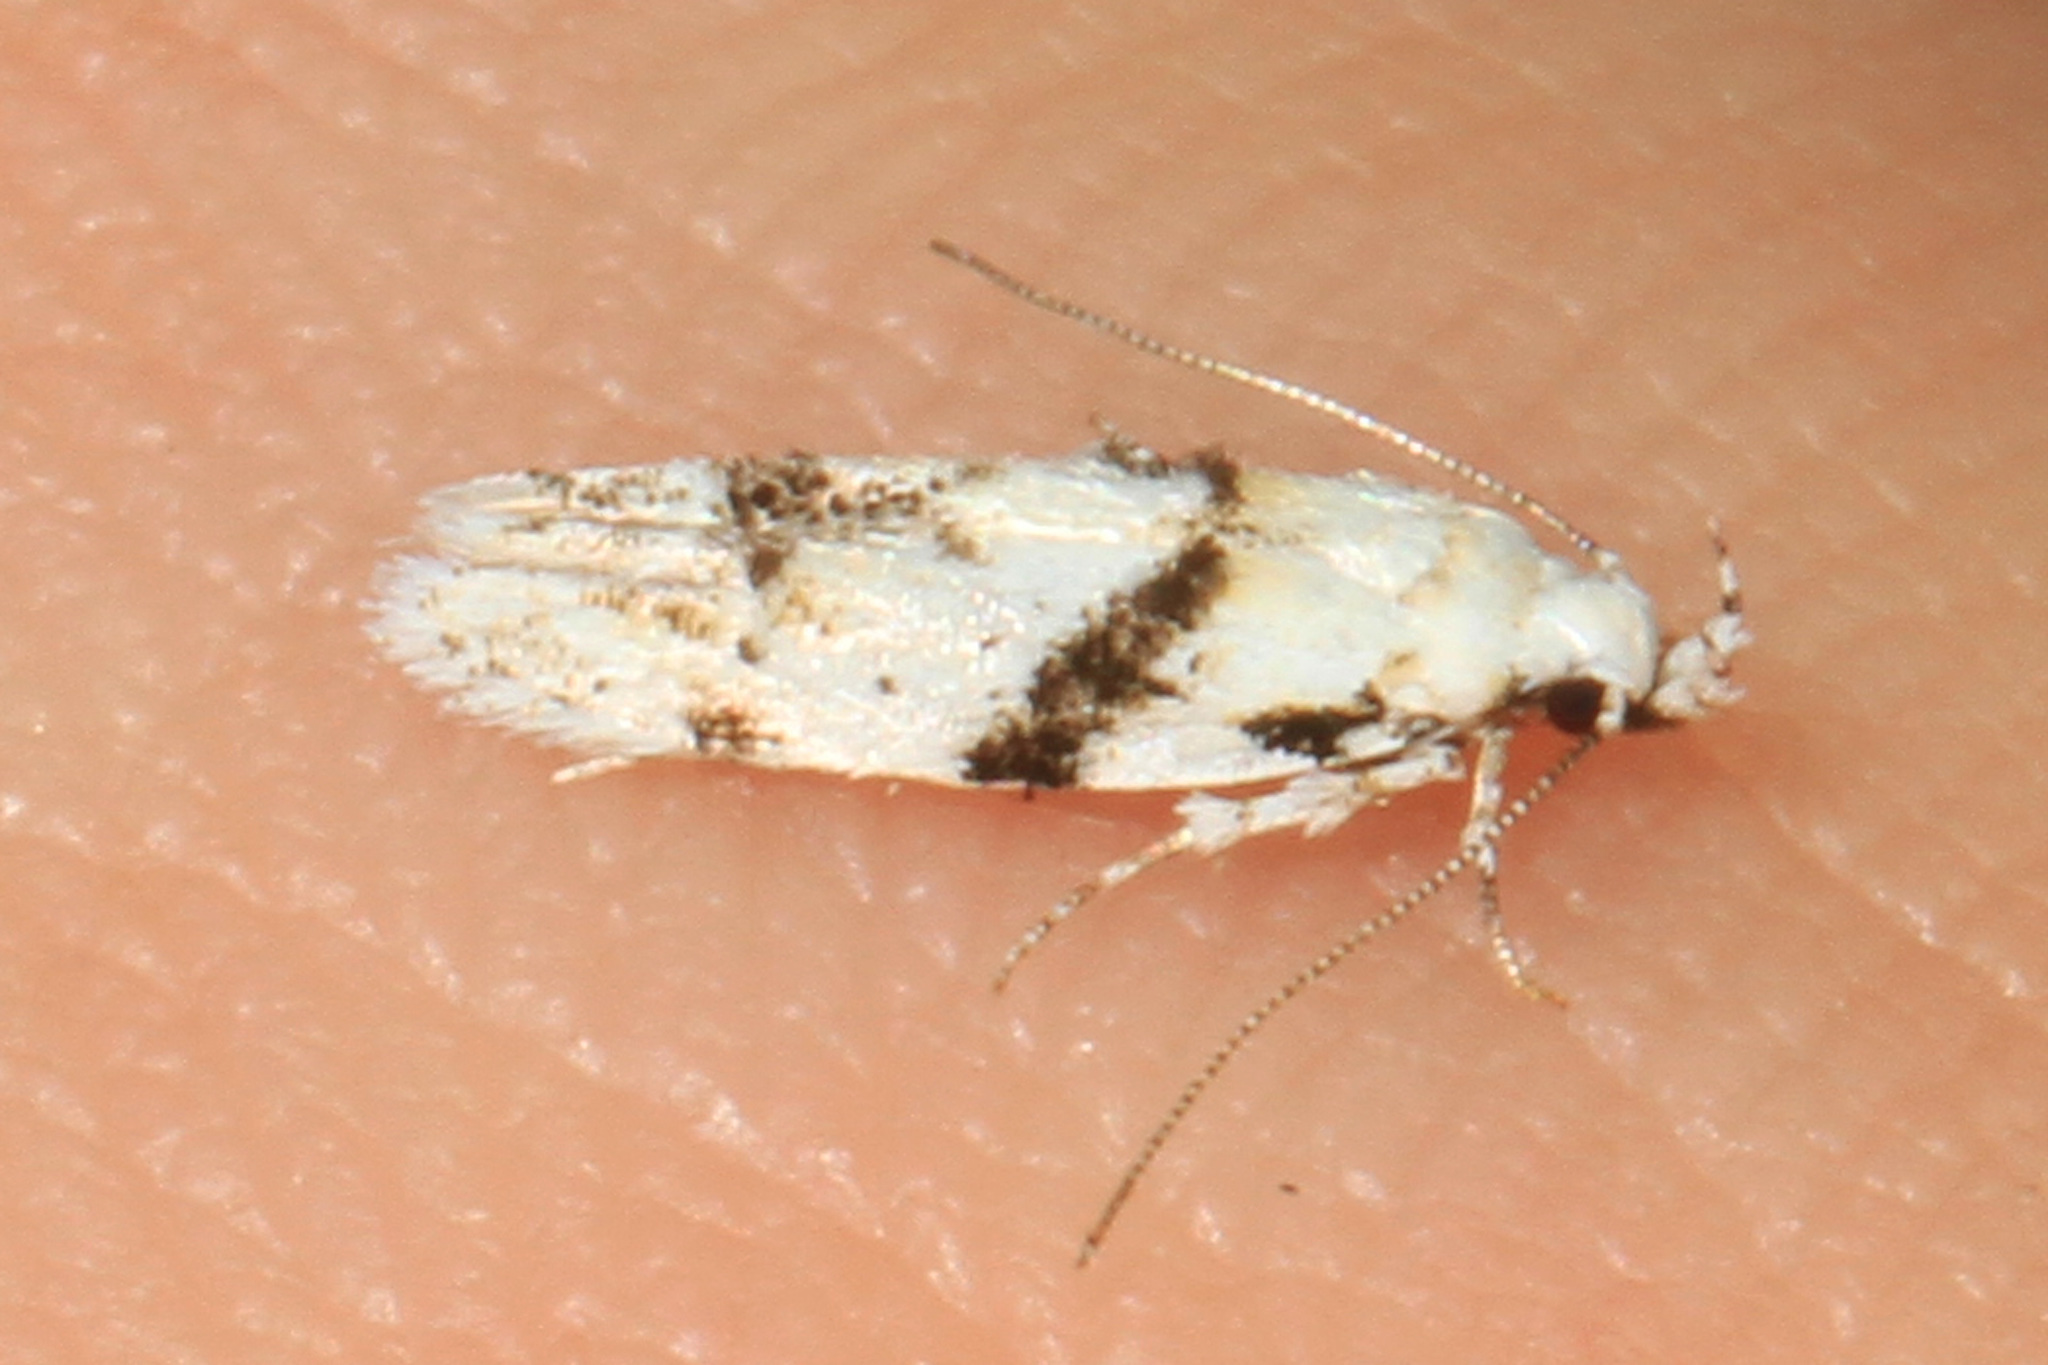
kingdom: Animalia
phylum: Arthropoda
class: Insecta
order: Lepidoptera
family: Gelechiidae
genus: Arogalea
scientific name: Arogalea cristifasciella
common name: White stripe-backed moth
